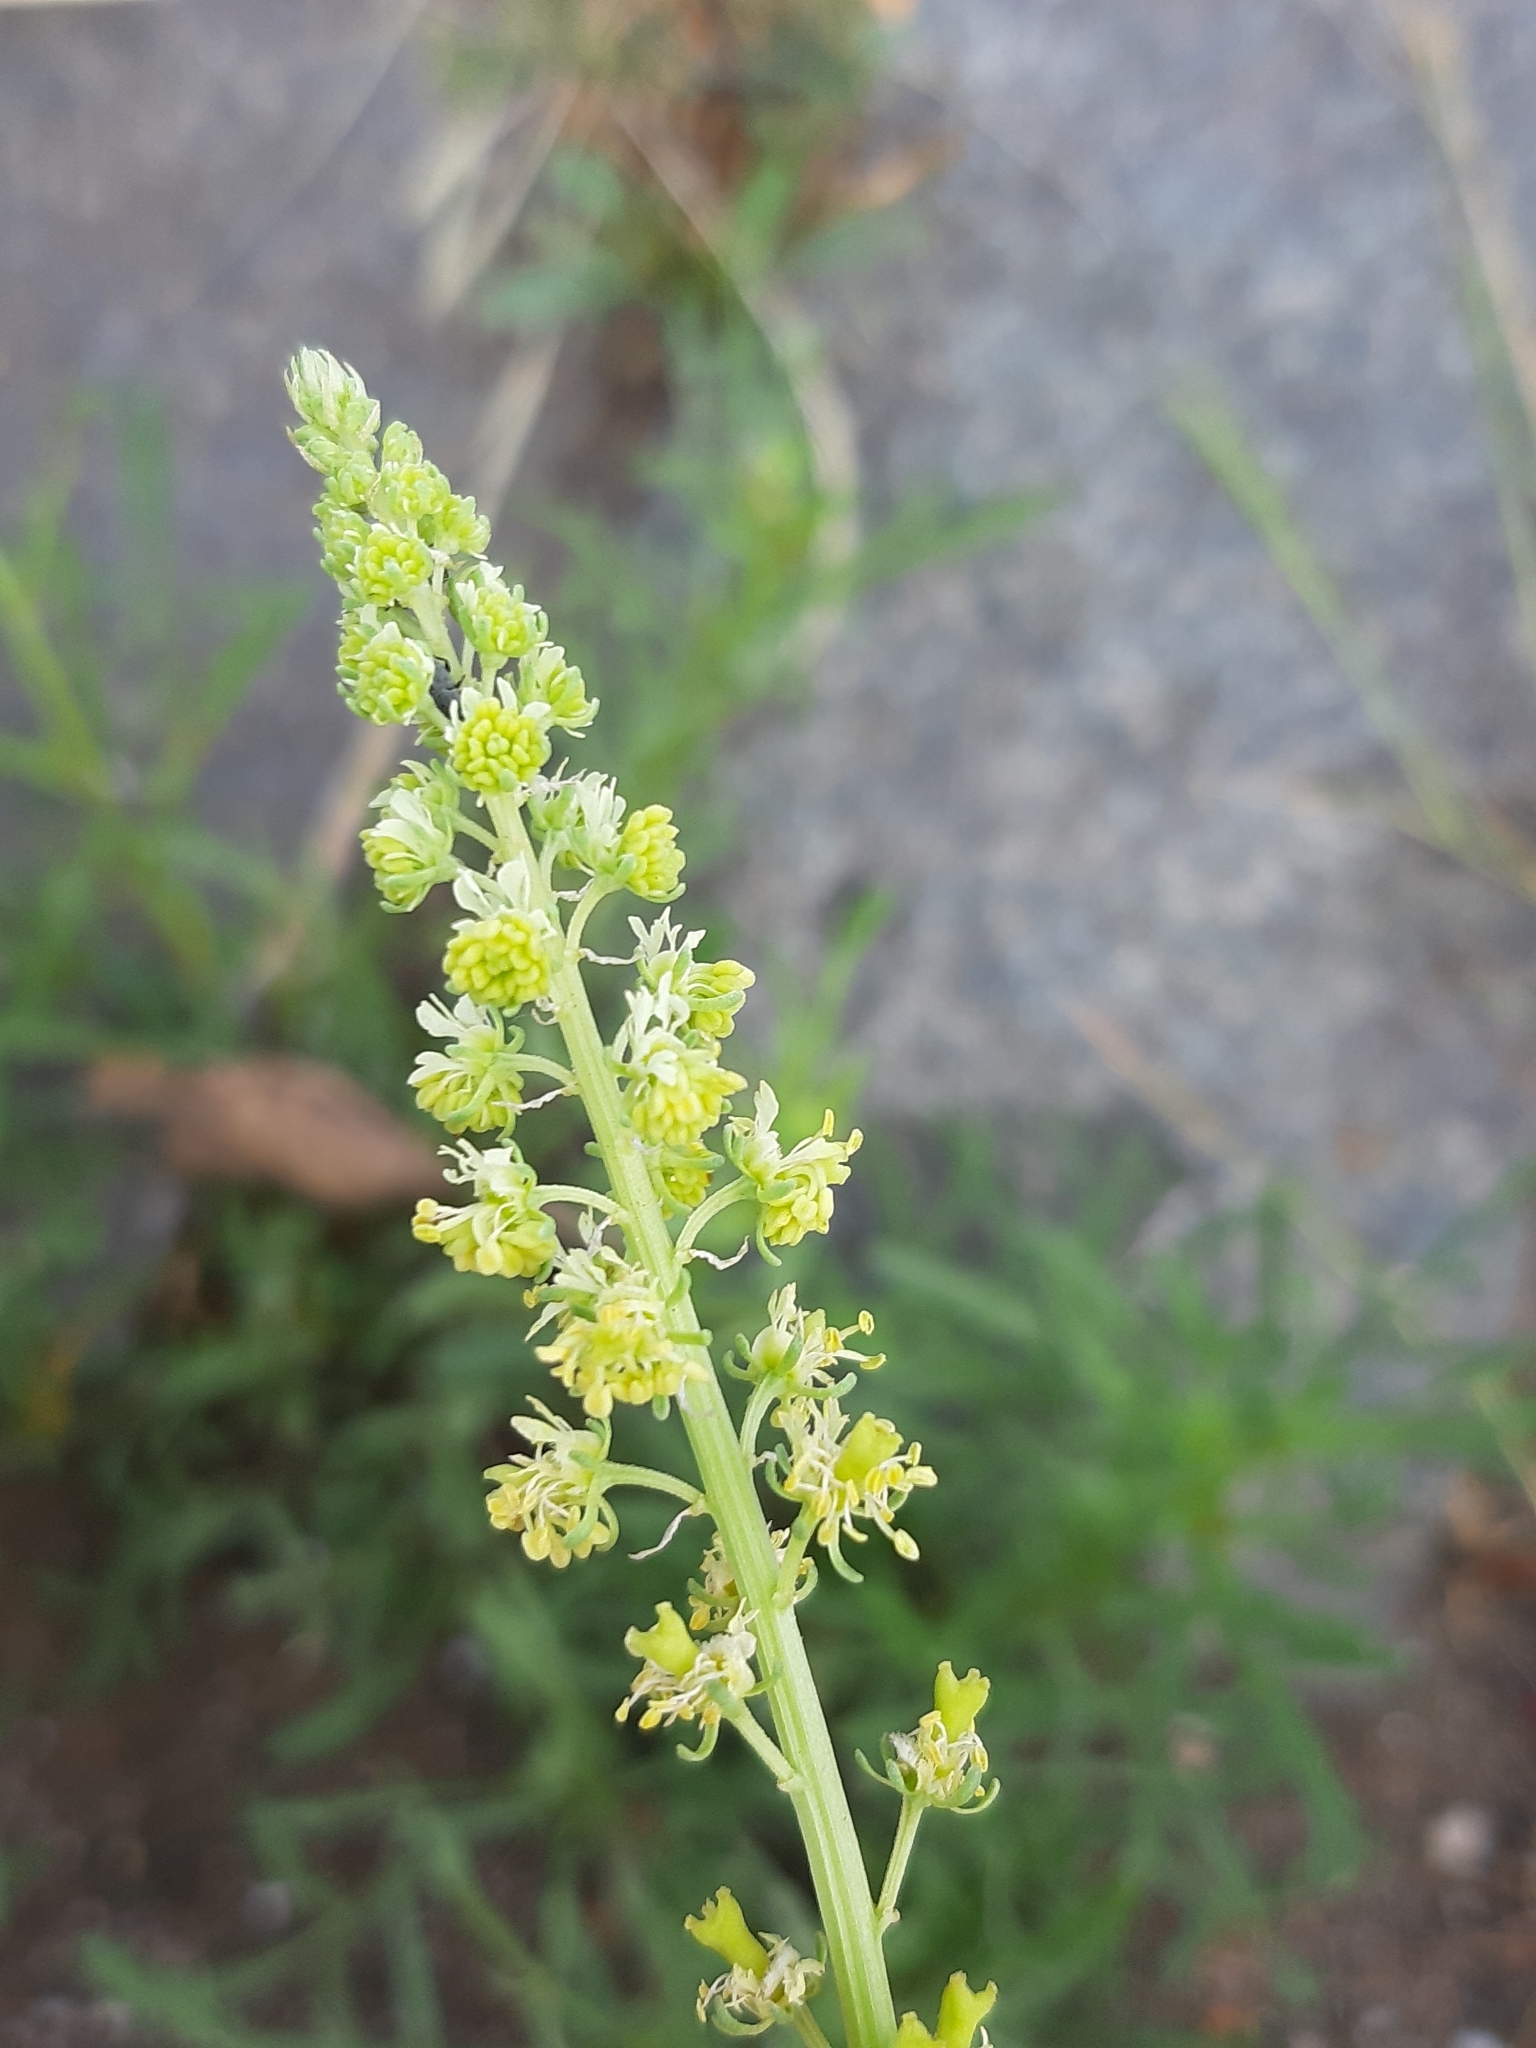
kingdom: Plantae
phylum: Tracheophyta
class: Magnoliopsida
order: Brassicales
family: Resedaceae
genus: Reseda
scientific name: Reseda lutea
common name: Wild mignonette
